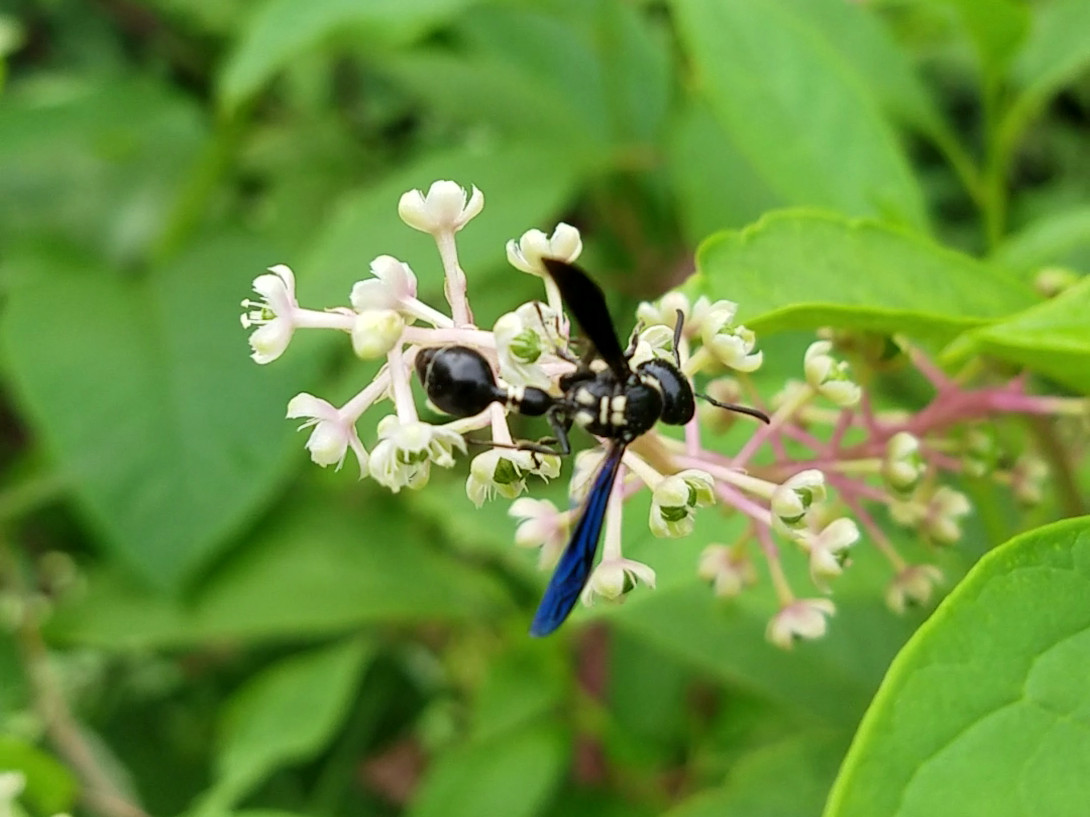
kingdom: Animalia
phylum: Arthropoda
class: Insecta
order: Hymenoptera
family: Eumenidae
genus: Zethus
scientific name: Zethus spinipes
